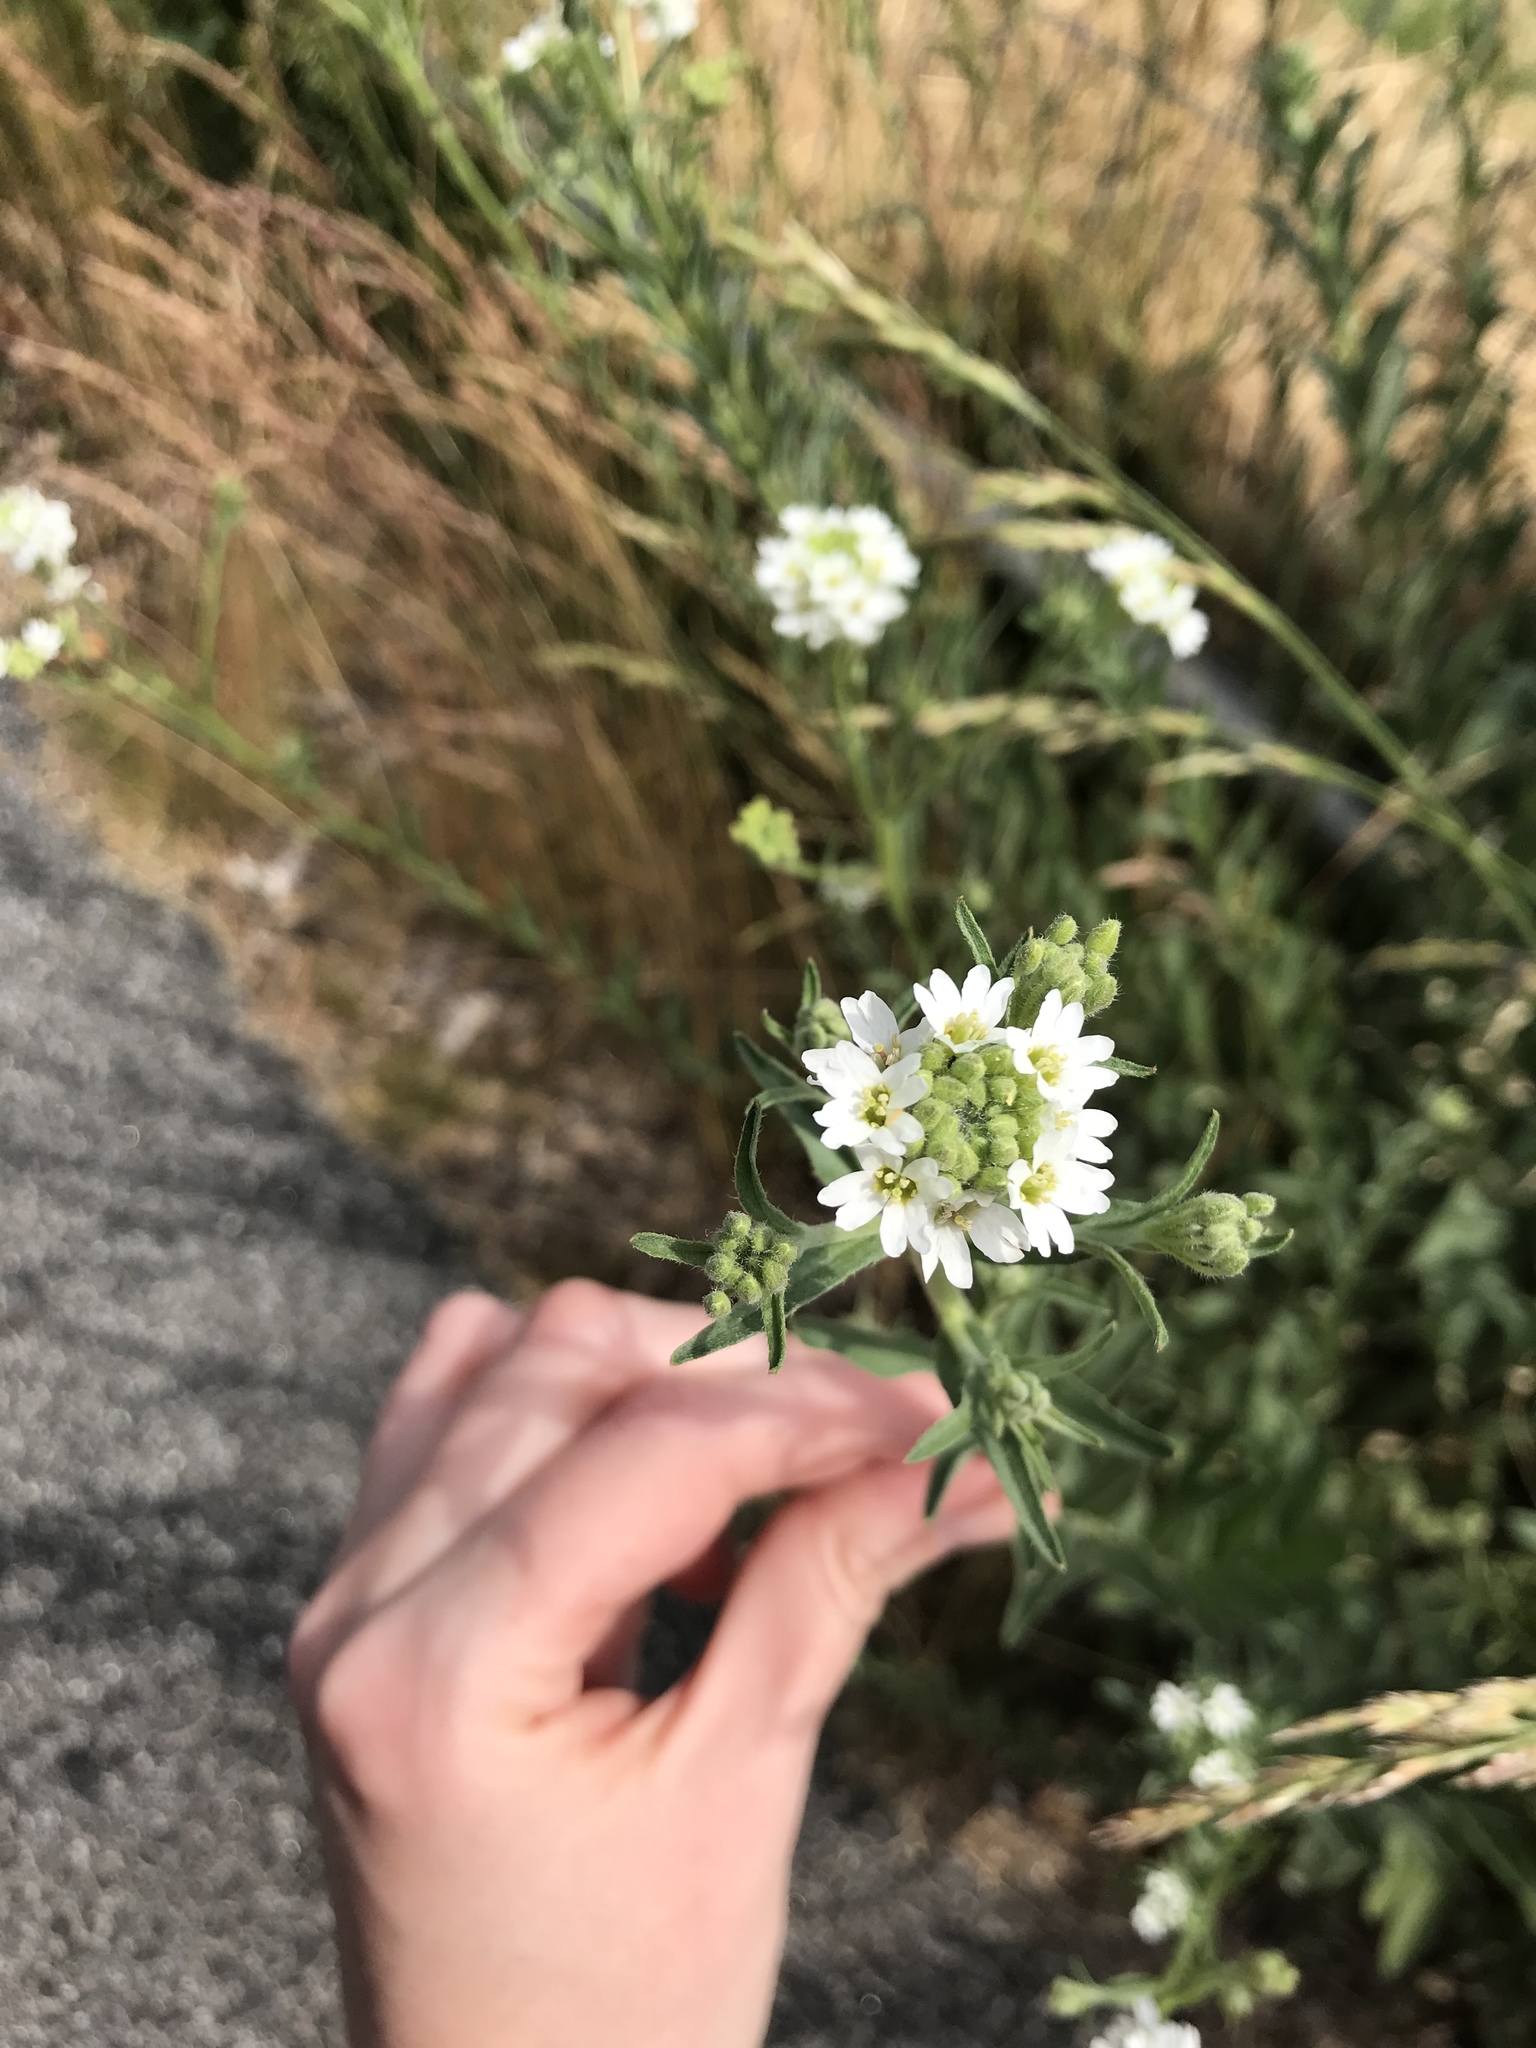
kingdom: Plantae
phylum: Tracheophyta
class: Magnoliopsida
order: Brassicales
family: Brassicaceae
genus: Berteroa
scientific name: Berteroa incana
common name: Hoary alison
